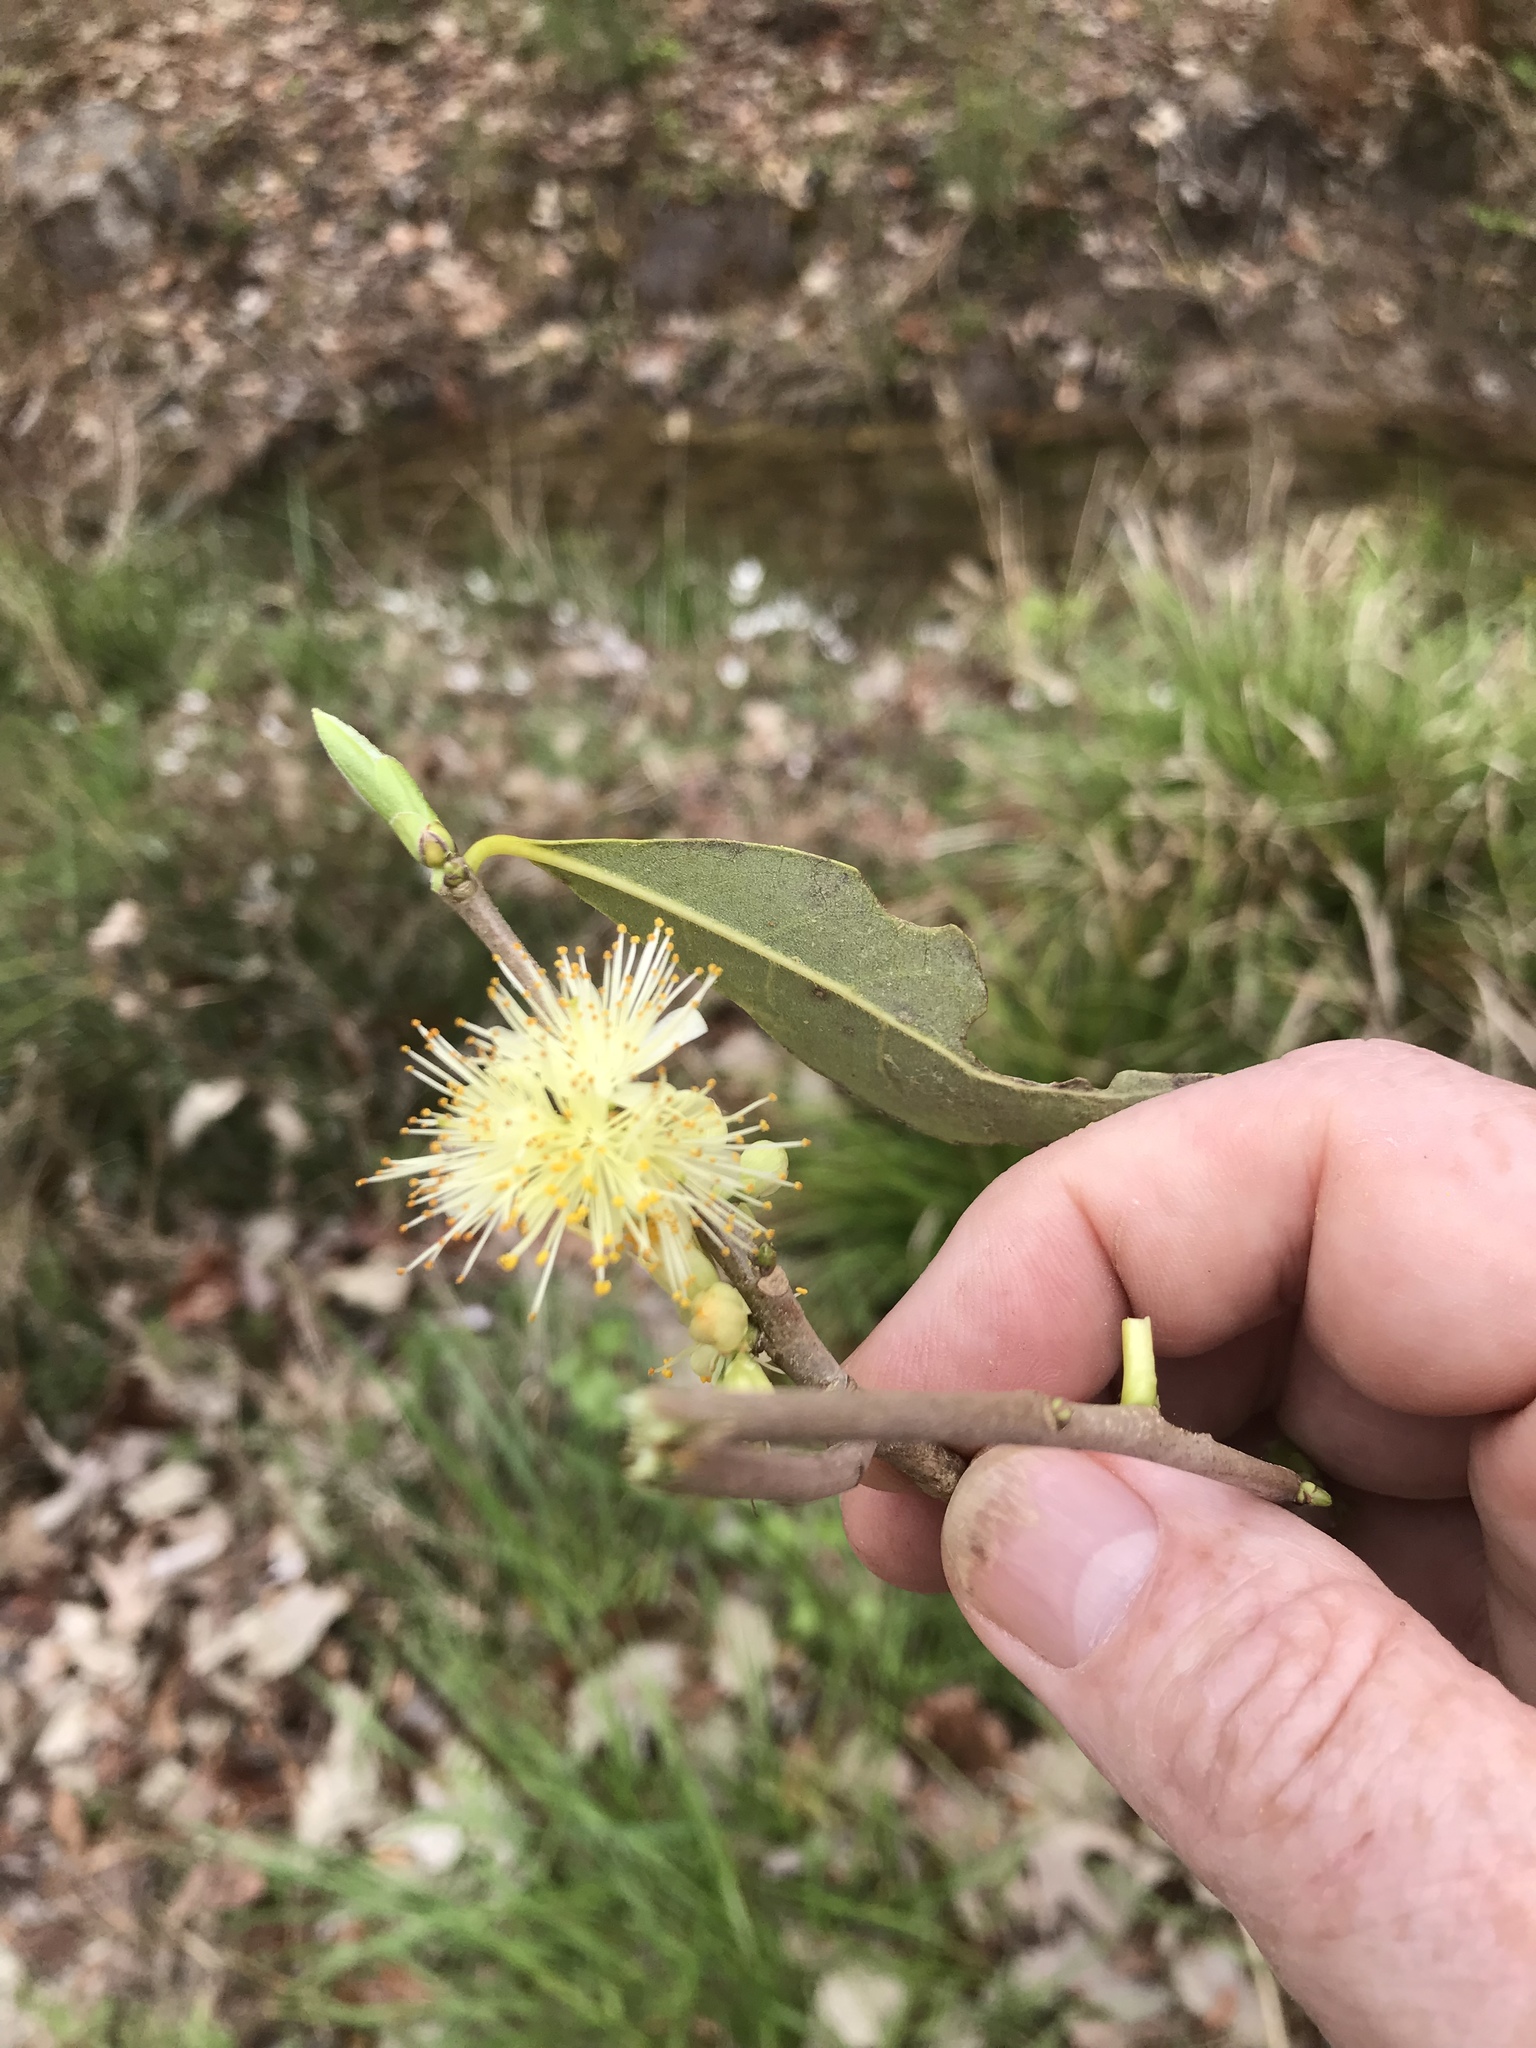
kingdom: Plantae
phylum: Tracheophyta
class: Magnoliopsida
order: Ericales
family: Symplocaceae
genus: Symplocos
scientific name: Symplocos tinctoria
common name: Horse-sugar
